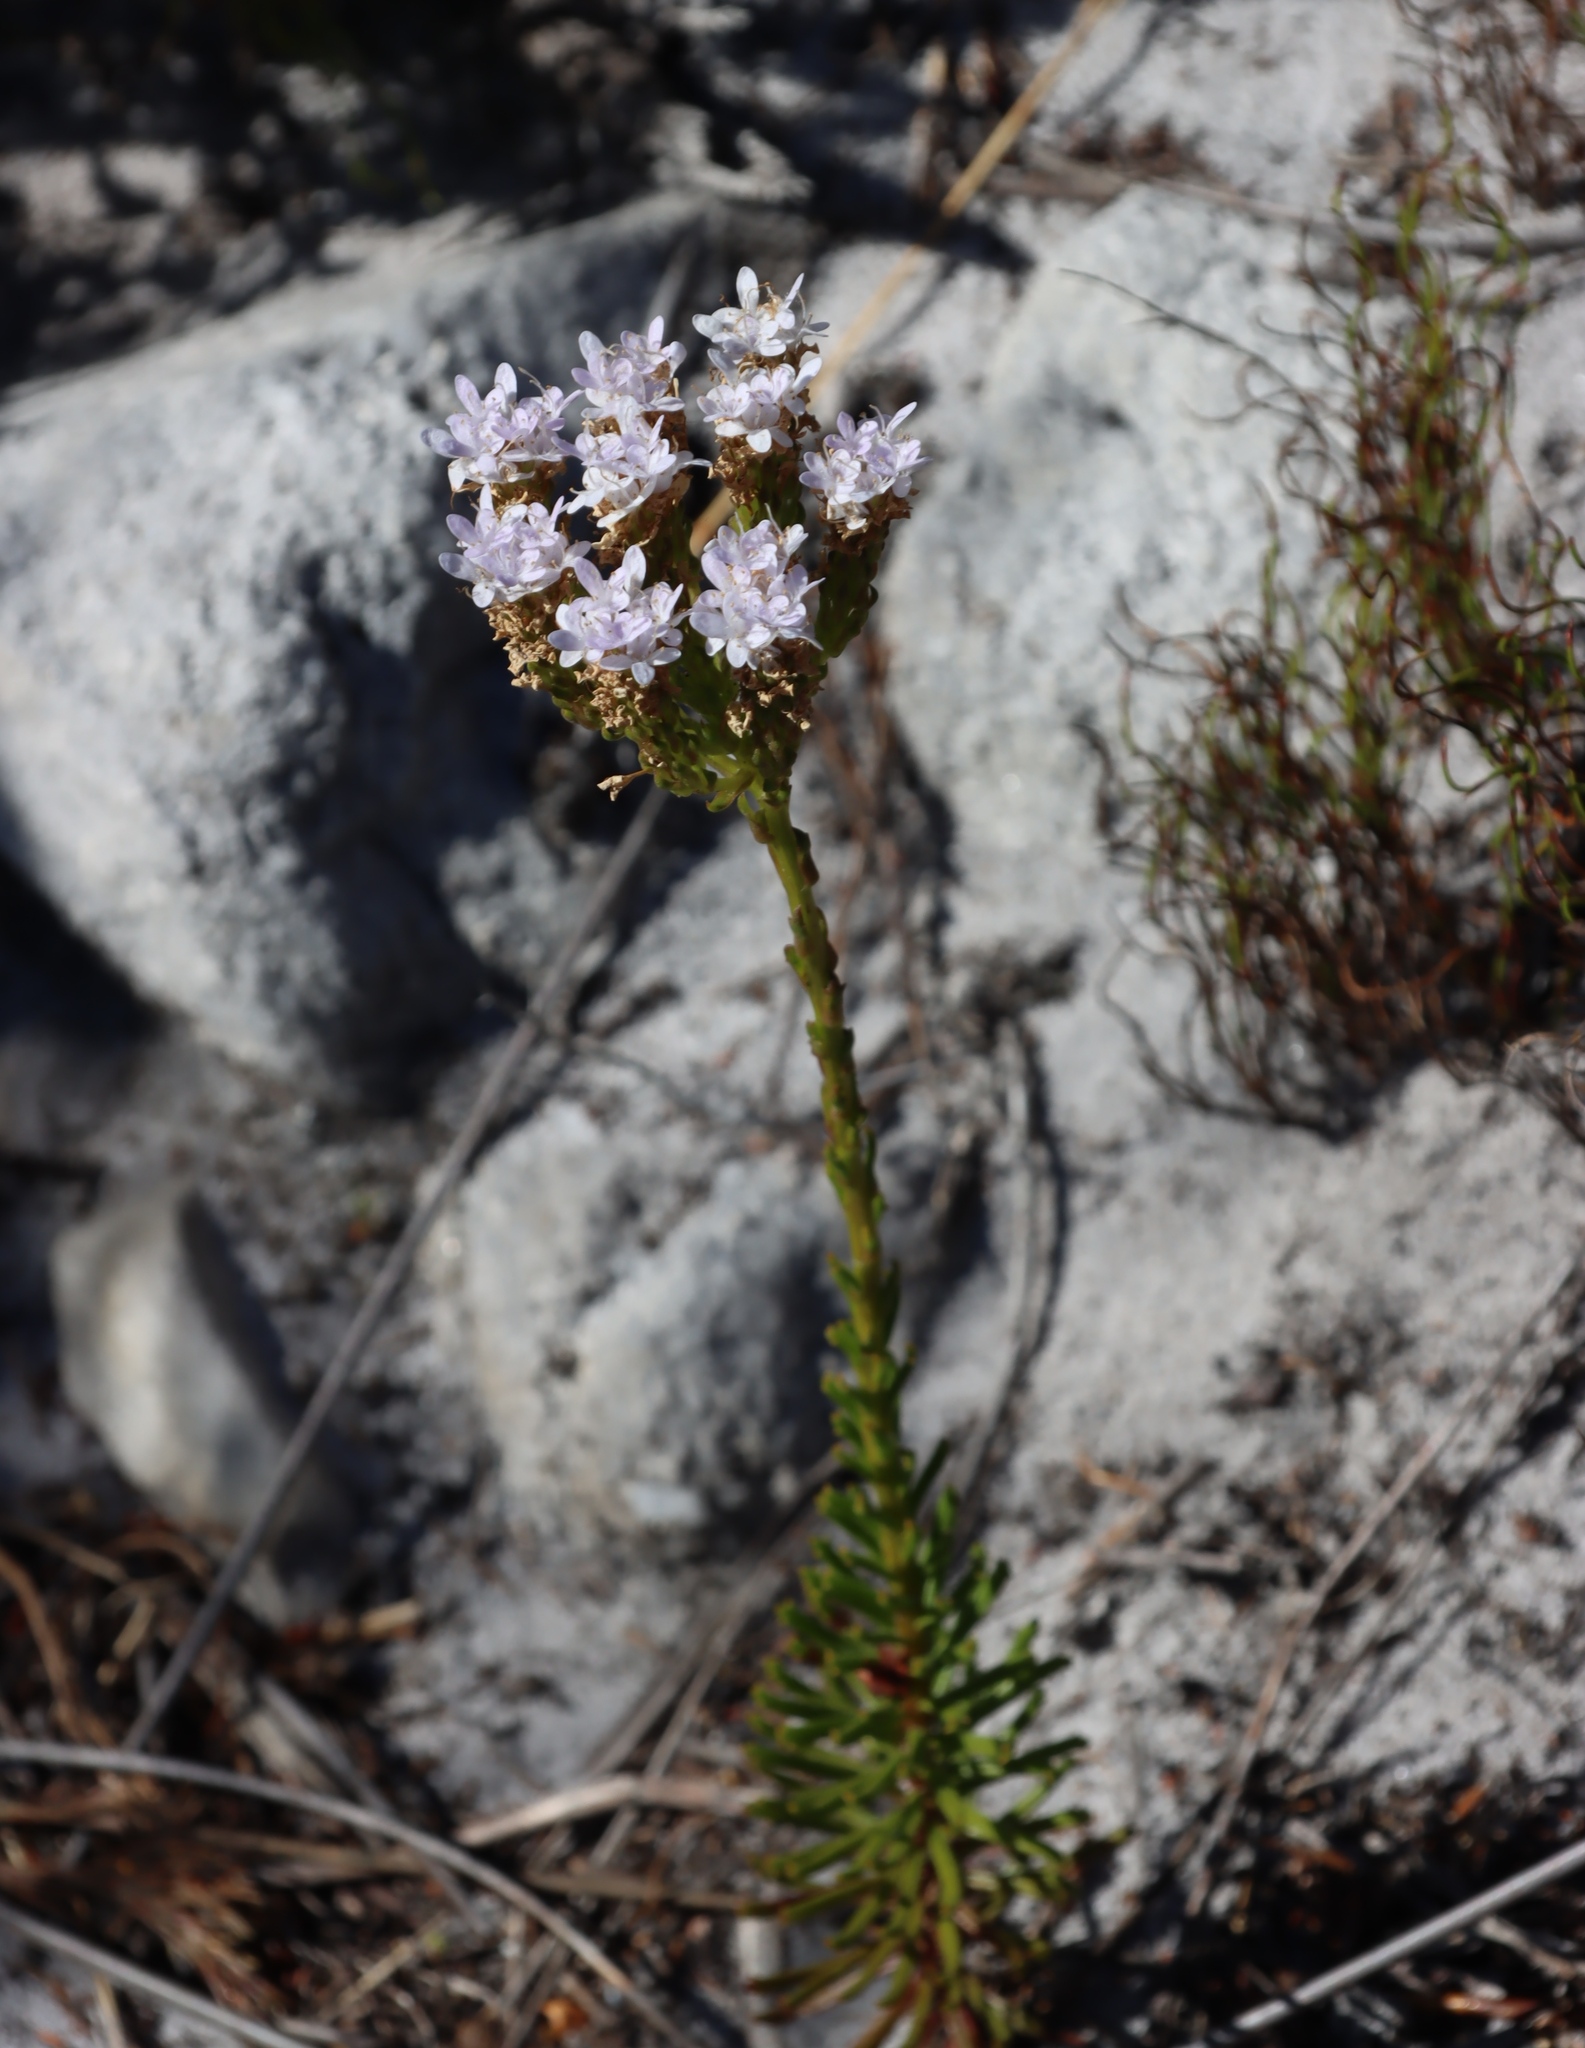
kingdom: Plantae
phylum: Tracheophyta
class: Magnoliopsida
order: Lamiales
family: Scrophulariaceae
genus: Pseudoselago
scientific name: Pseudoselago spuria
